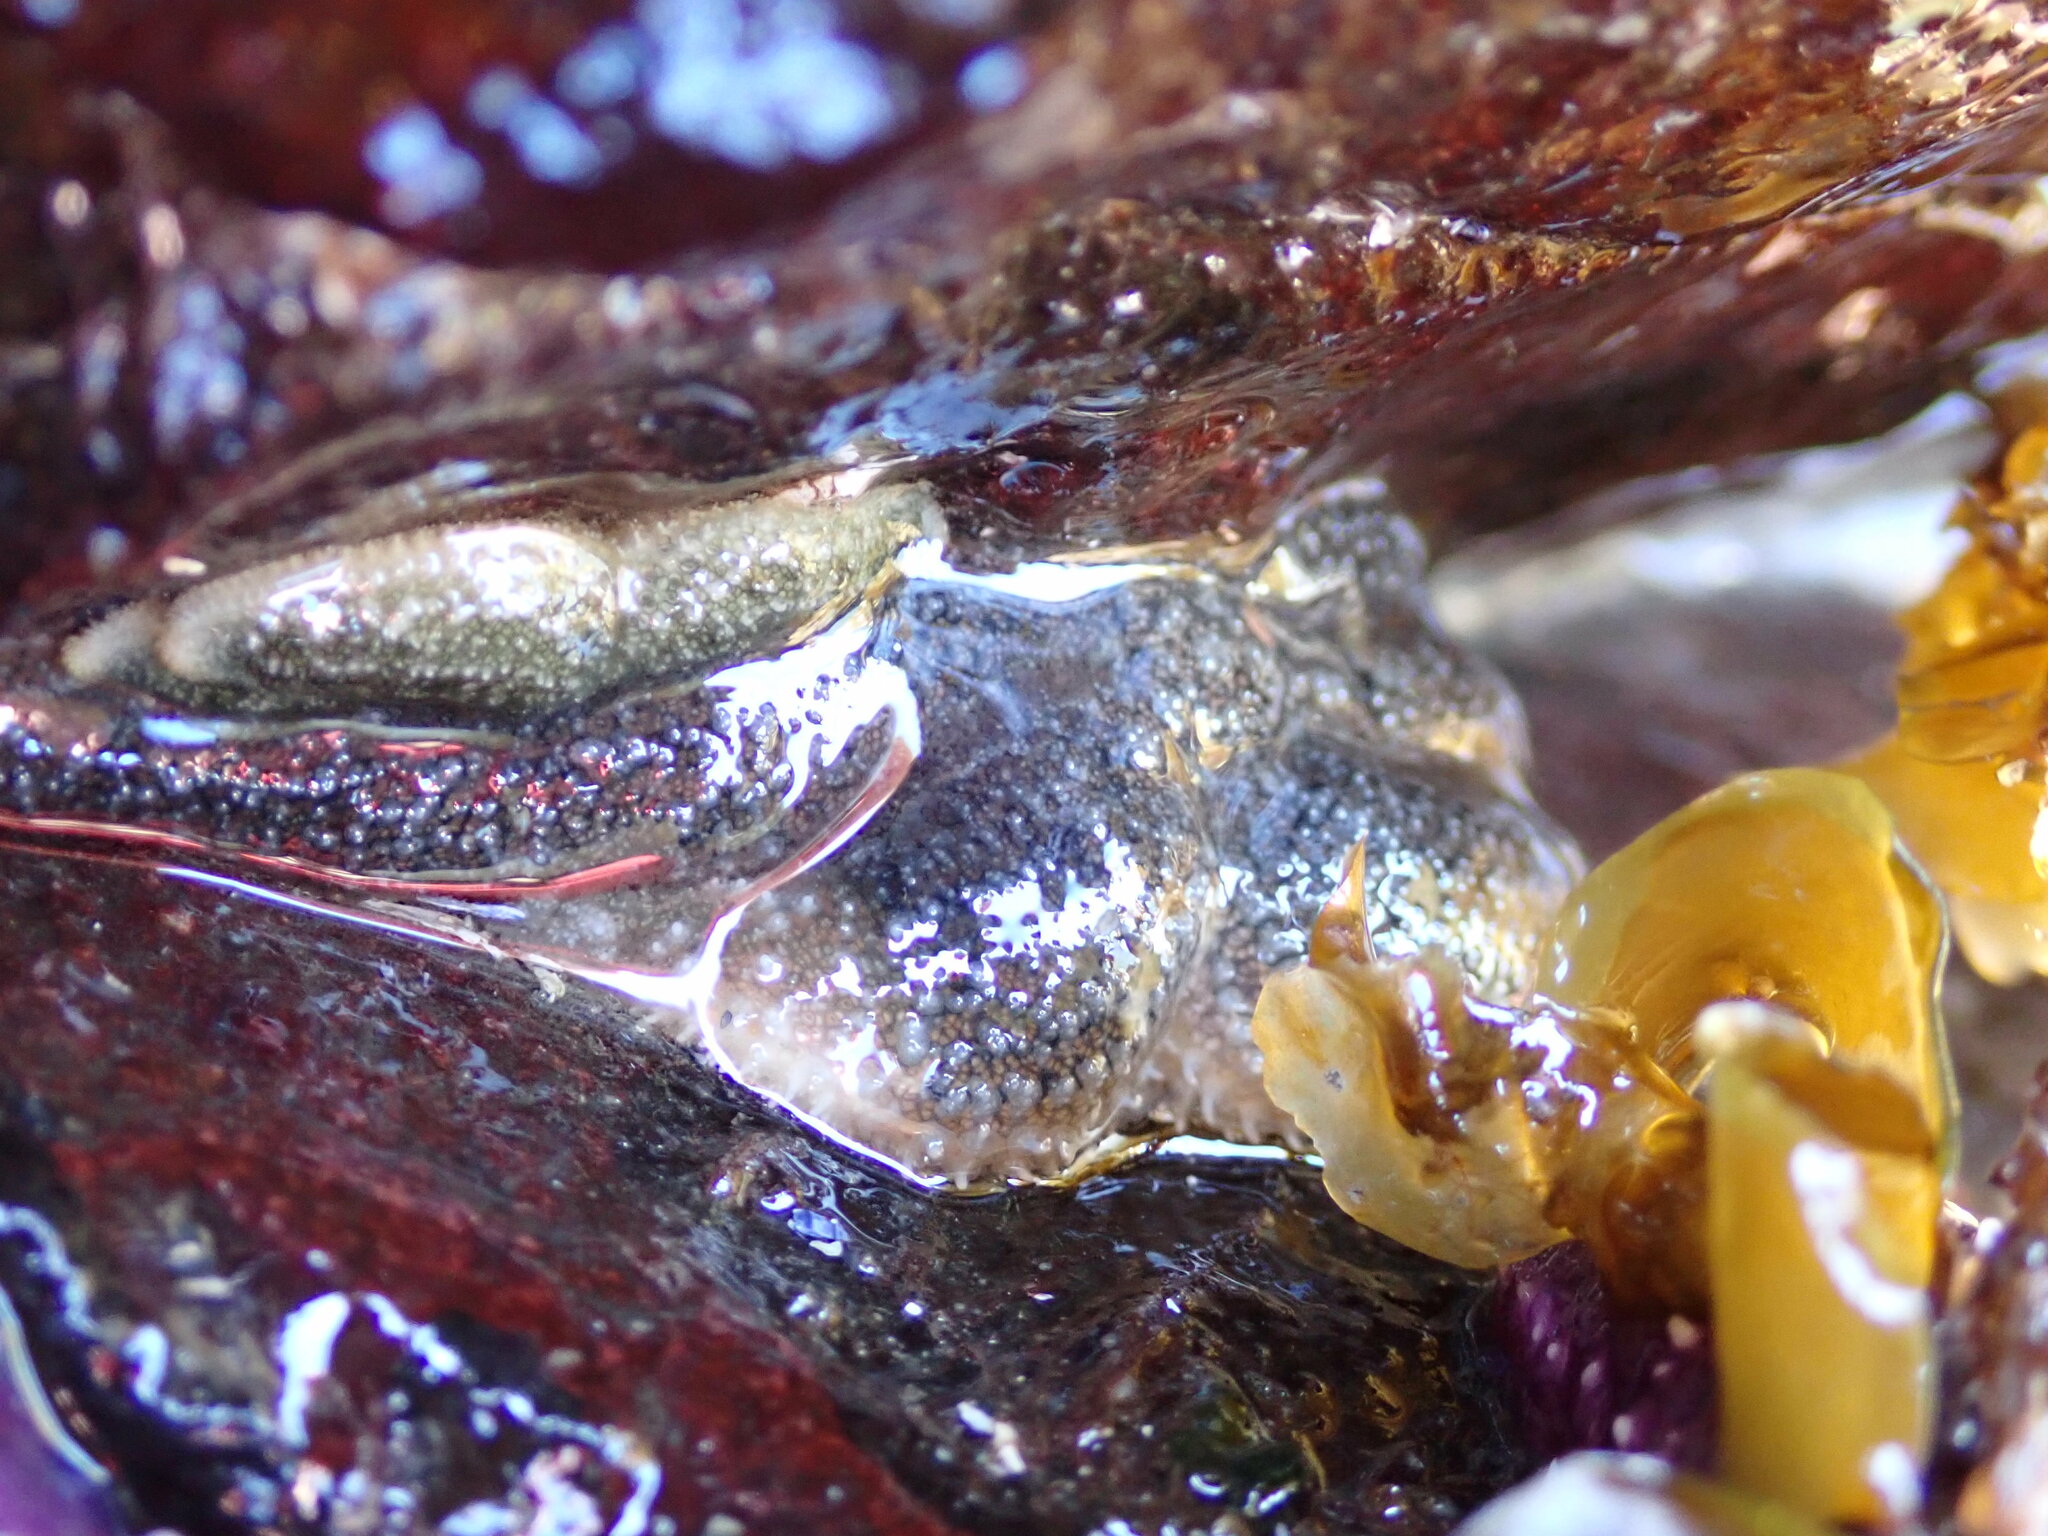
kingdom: Animalia
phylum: Echinodermata
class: Asteroidea
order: Forcipulatida
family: Asteriidae
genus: Evasterias
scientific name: Evasterias troschelii
